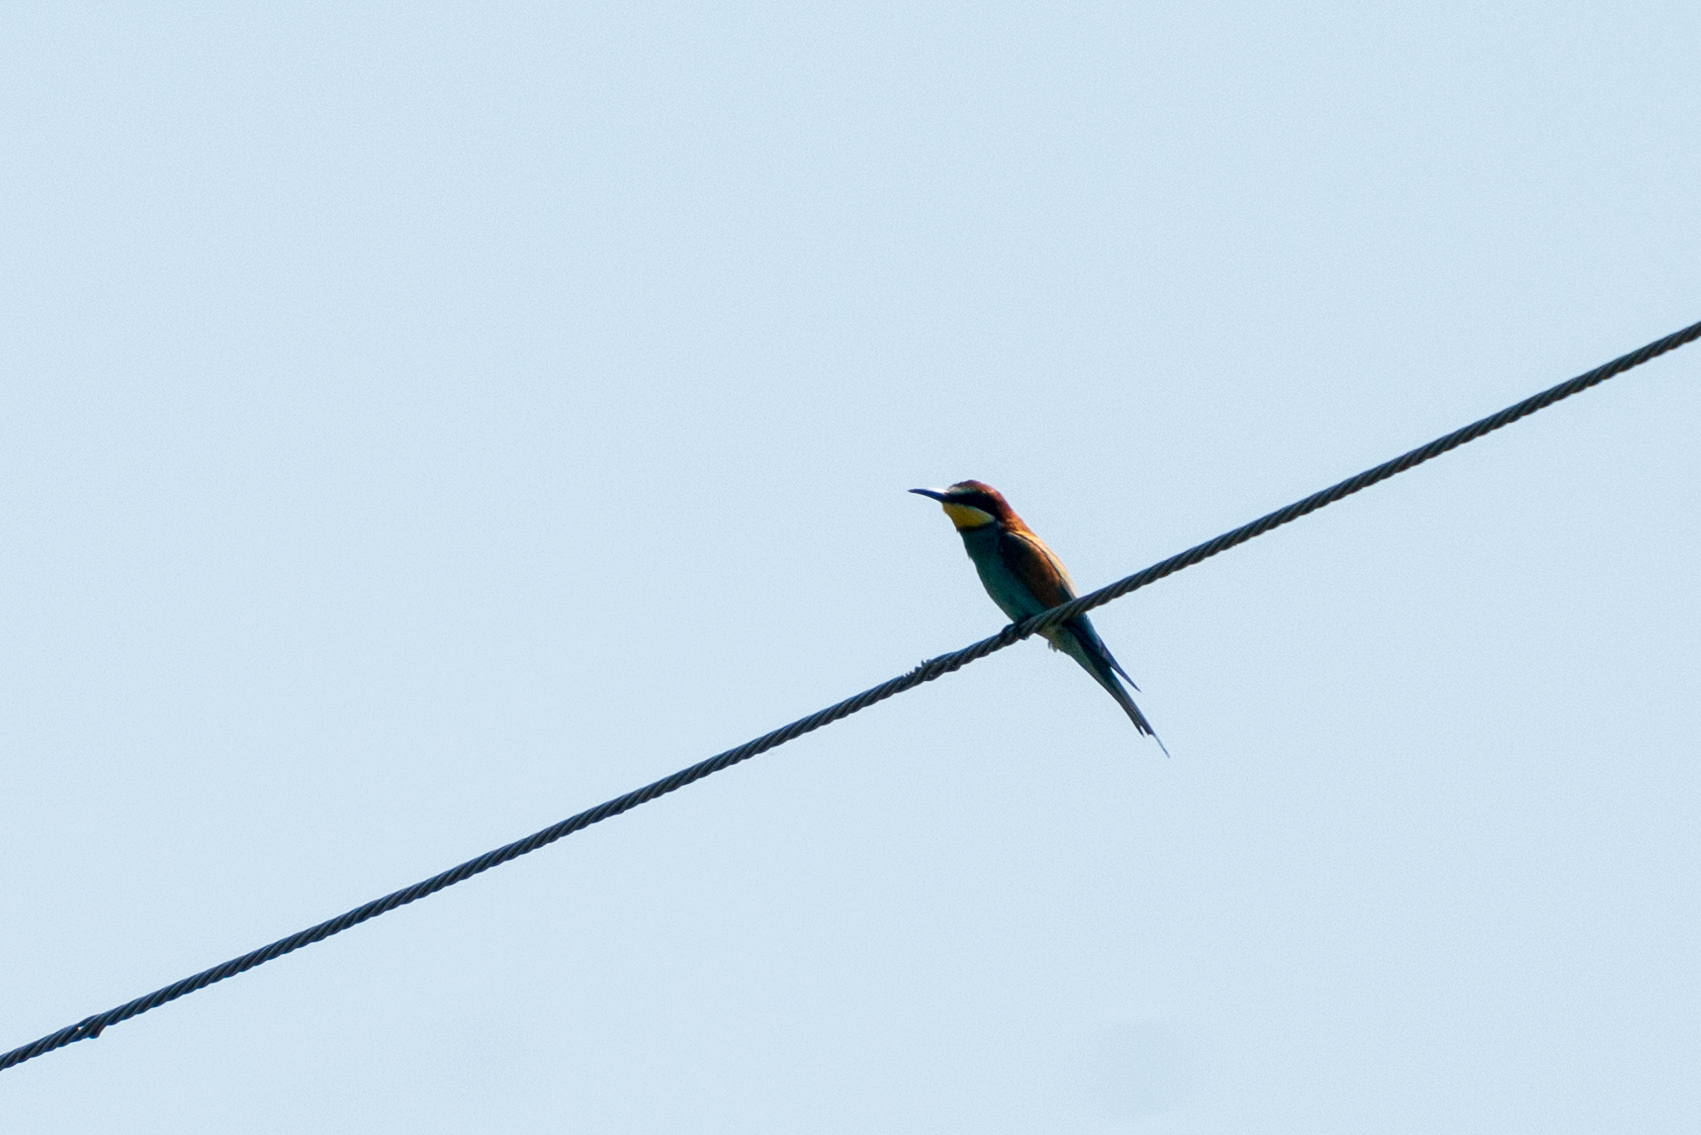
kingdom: Animalia
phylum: Chordata
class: Aves
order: Coraciiformes
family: Meropidae
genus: Merops
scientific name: Merops apiaster
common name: European bee-eater
